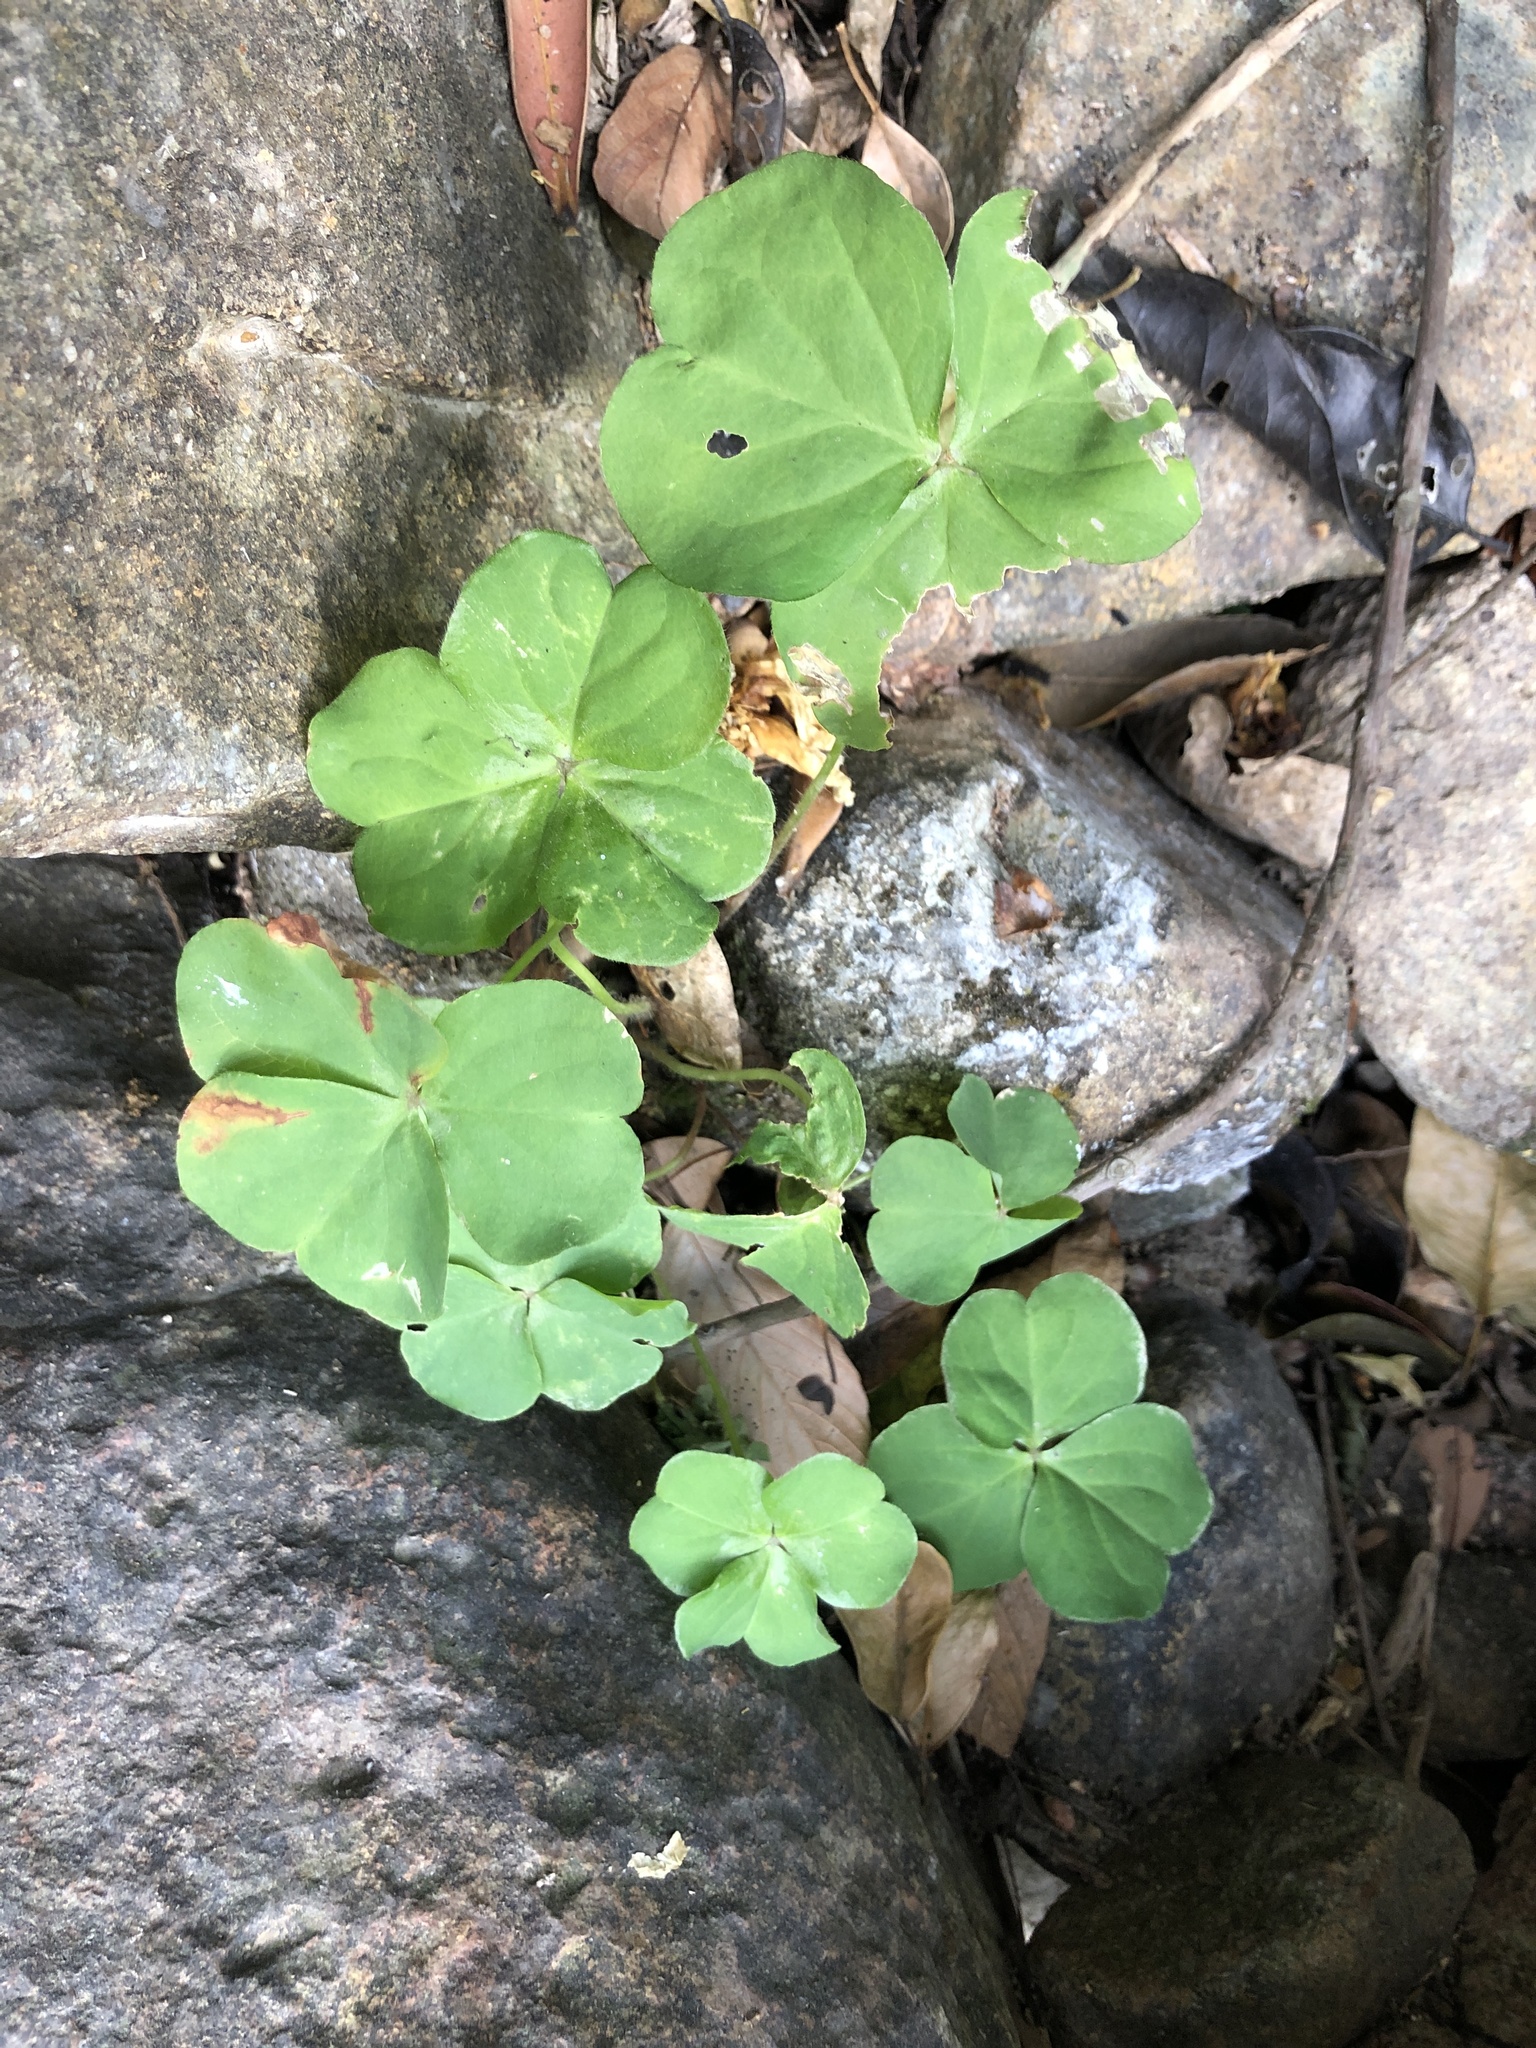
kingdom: Plantae
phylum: Tracheophyta
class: Magnoliopsida
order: Oxalidales
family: Oxalidaceae
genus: Oxalis
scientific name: Oxalis debilis
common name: Large-flowered pink-sorrel
